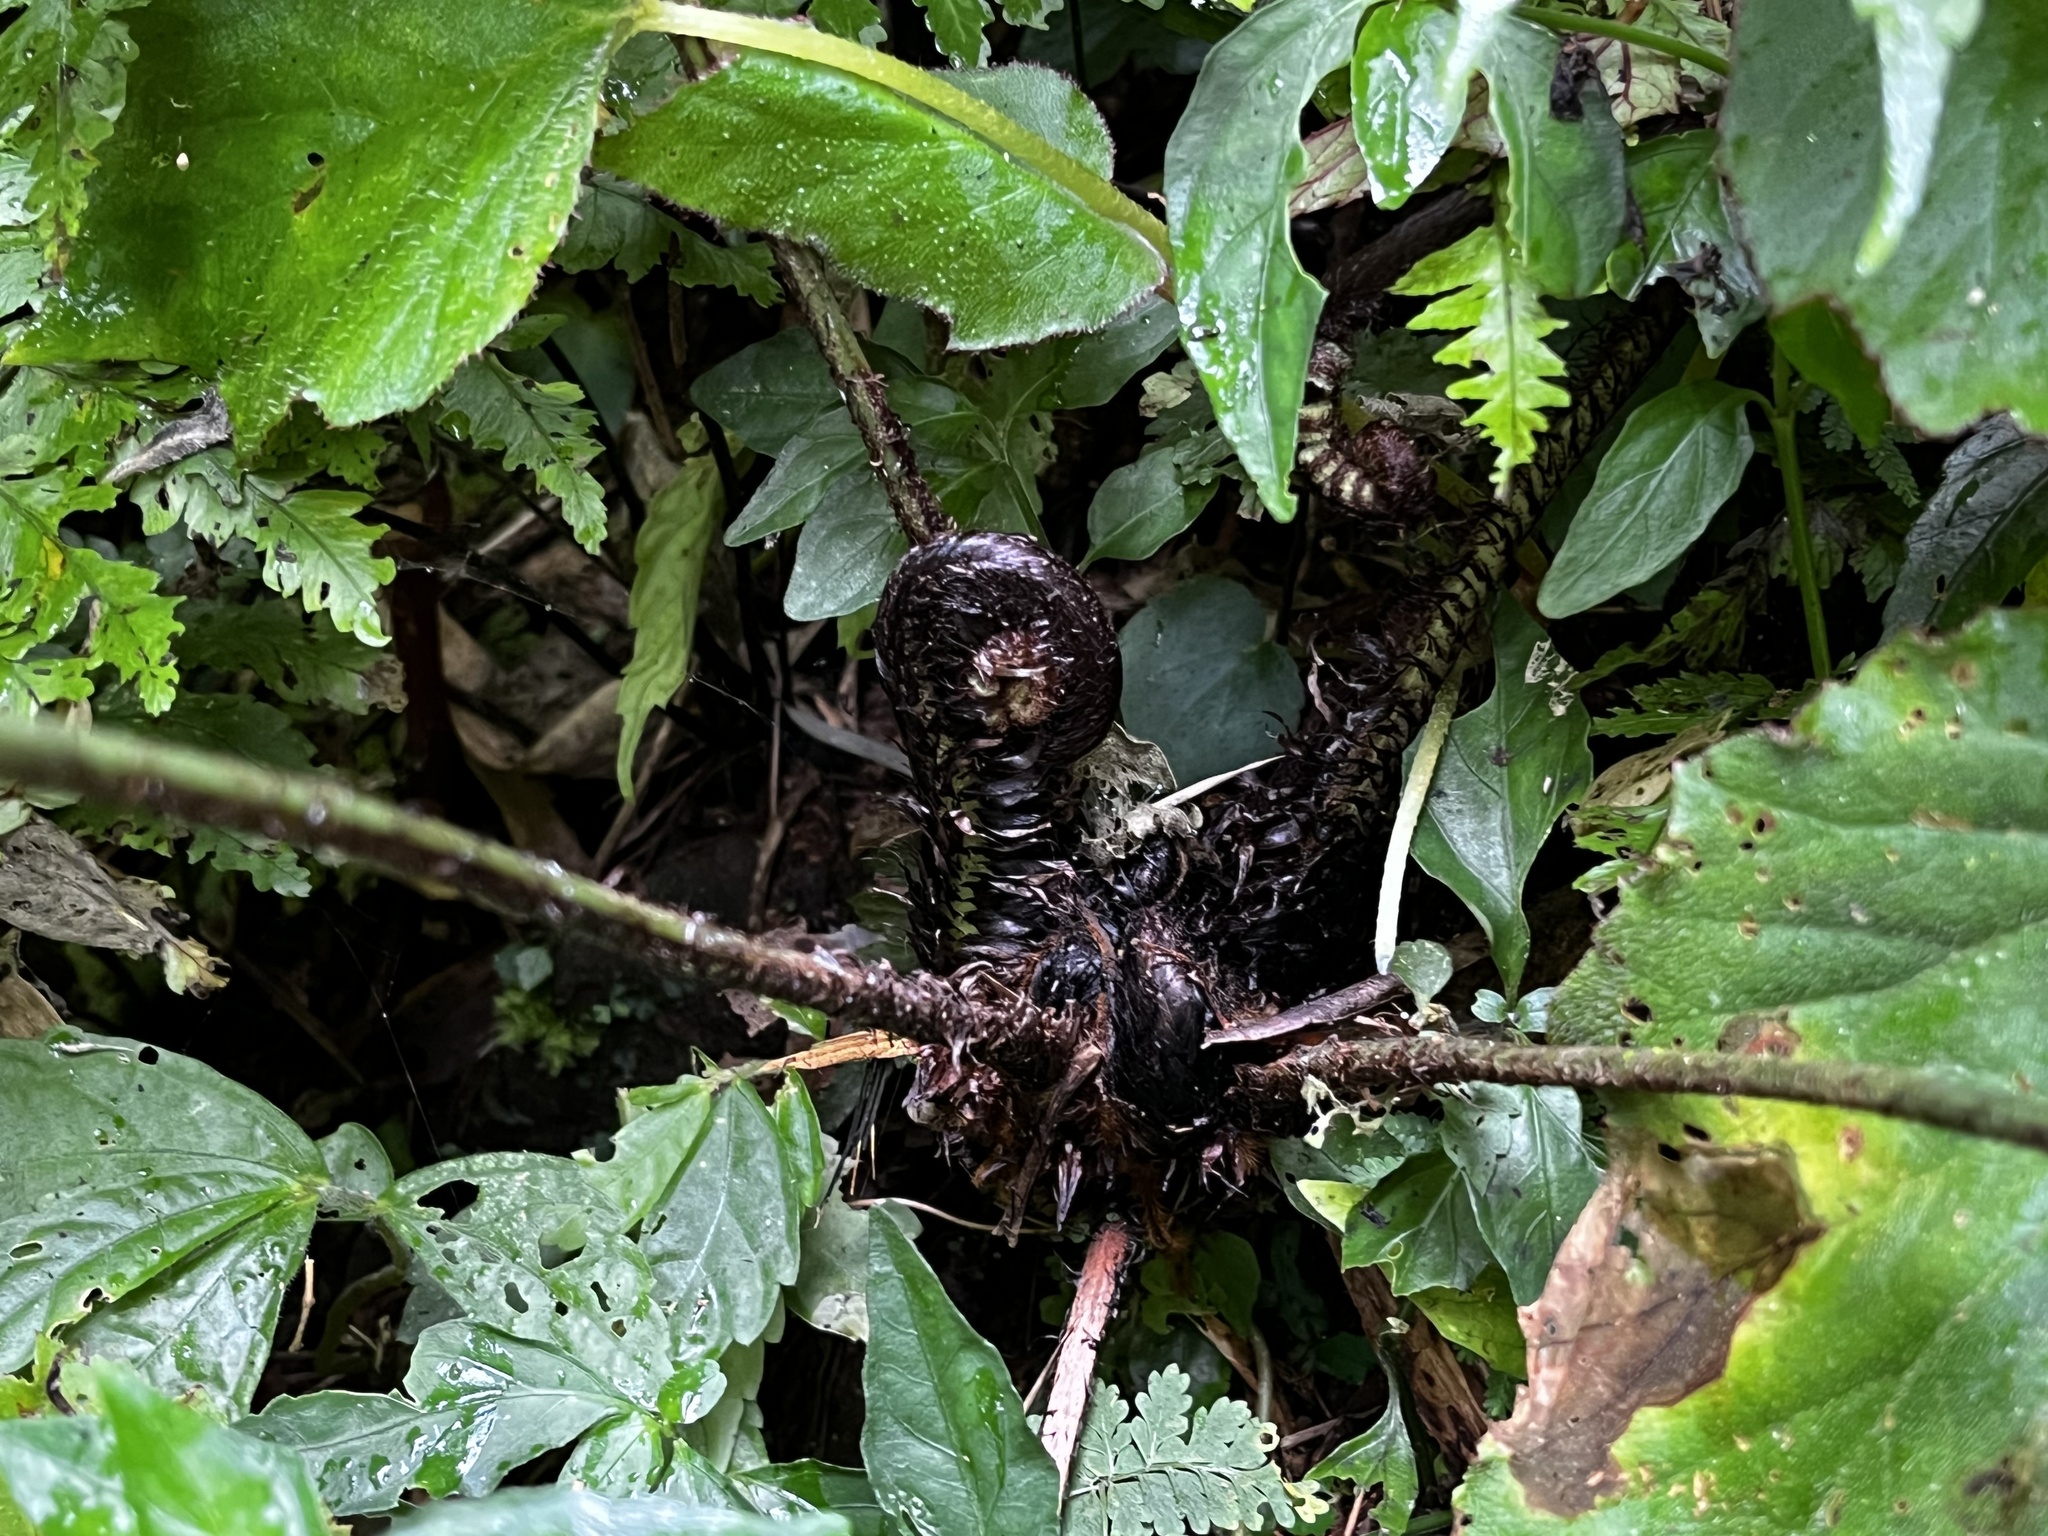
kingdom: Plantae
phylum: Tracheophyta
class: Polypodiopsida
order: Polypodiales
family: Dryopteridaceae
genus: Dryopteris
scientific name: Dryopteris scottii
